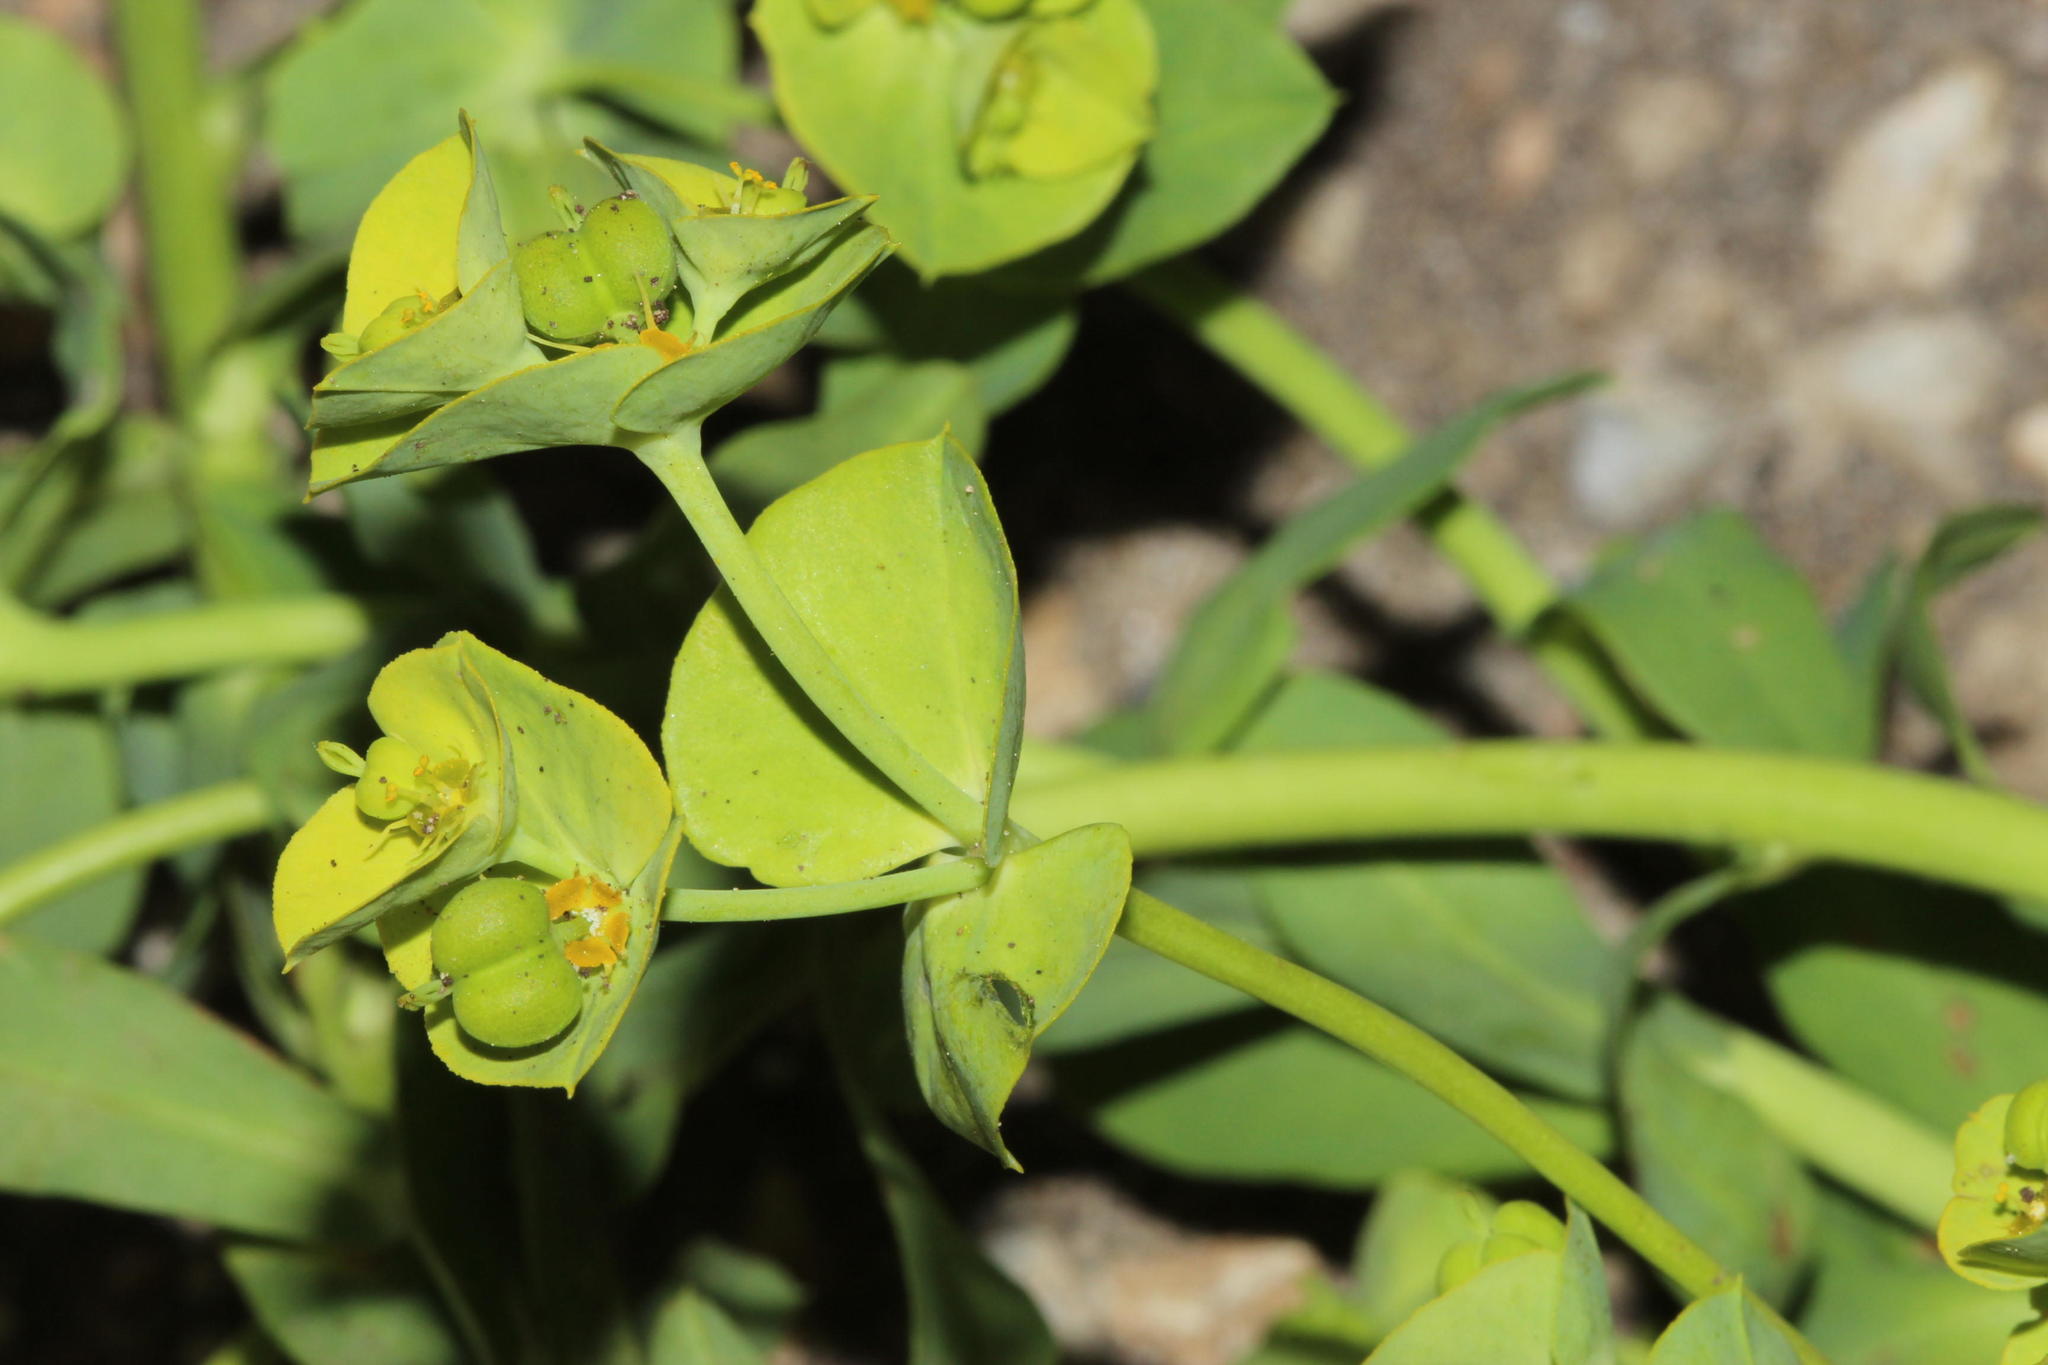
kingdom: Plantae
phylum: Tracheophyta
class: Magnoliopsida
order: Malpighiales
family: Euphorbiaceae
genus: Euphorbia
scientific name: Euphorbia terracina
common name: Geraldton carnation weed
